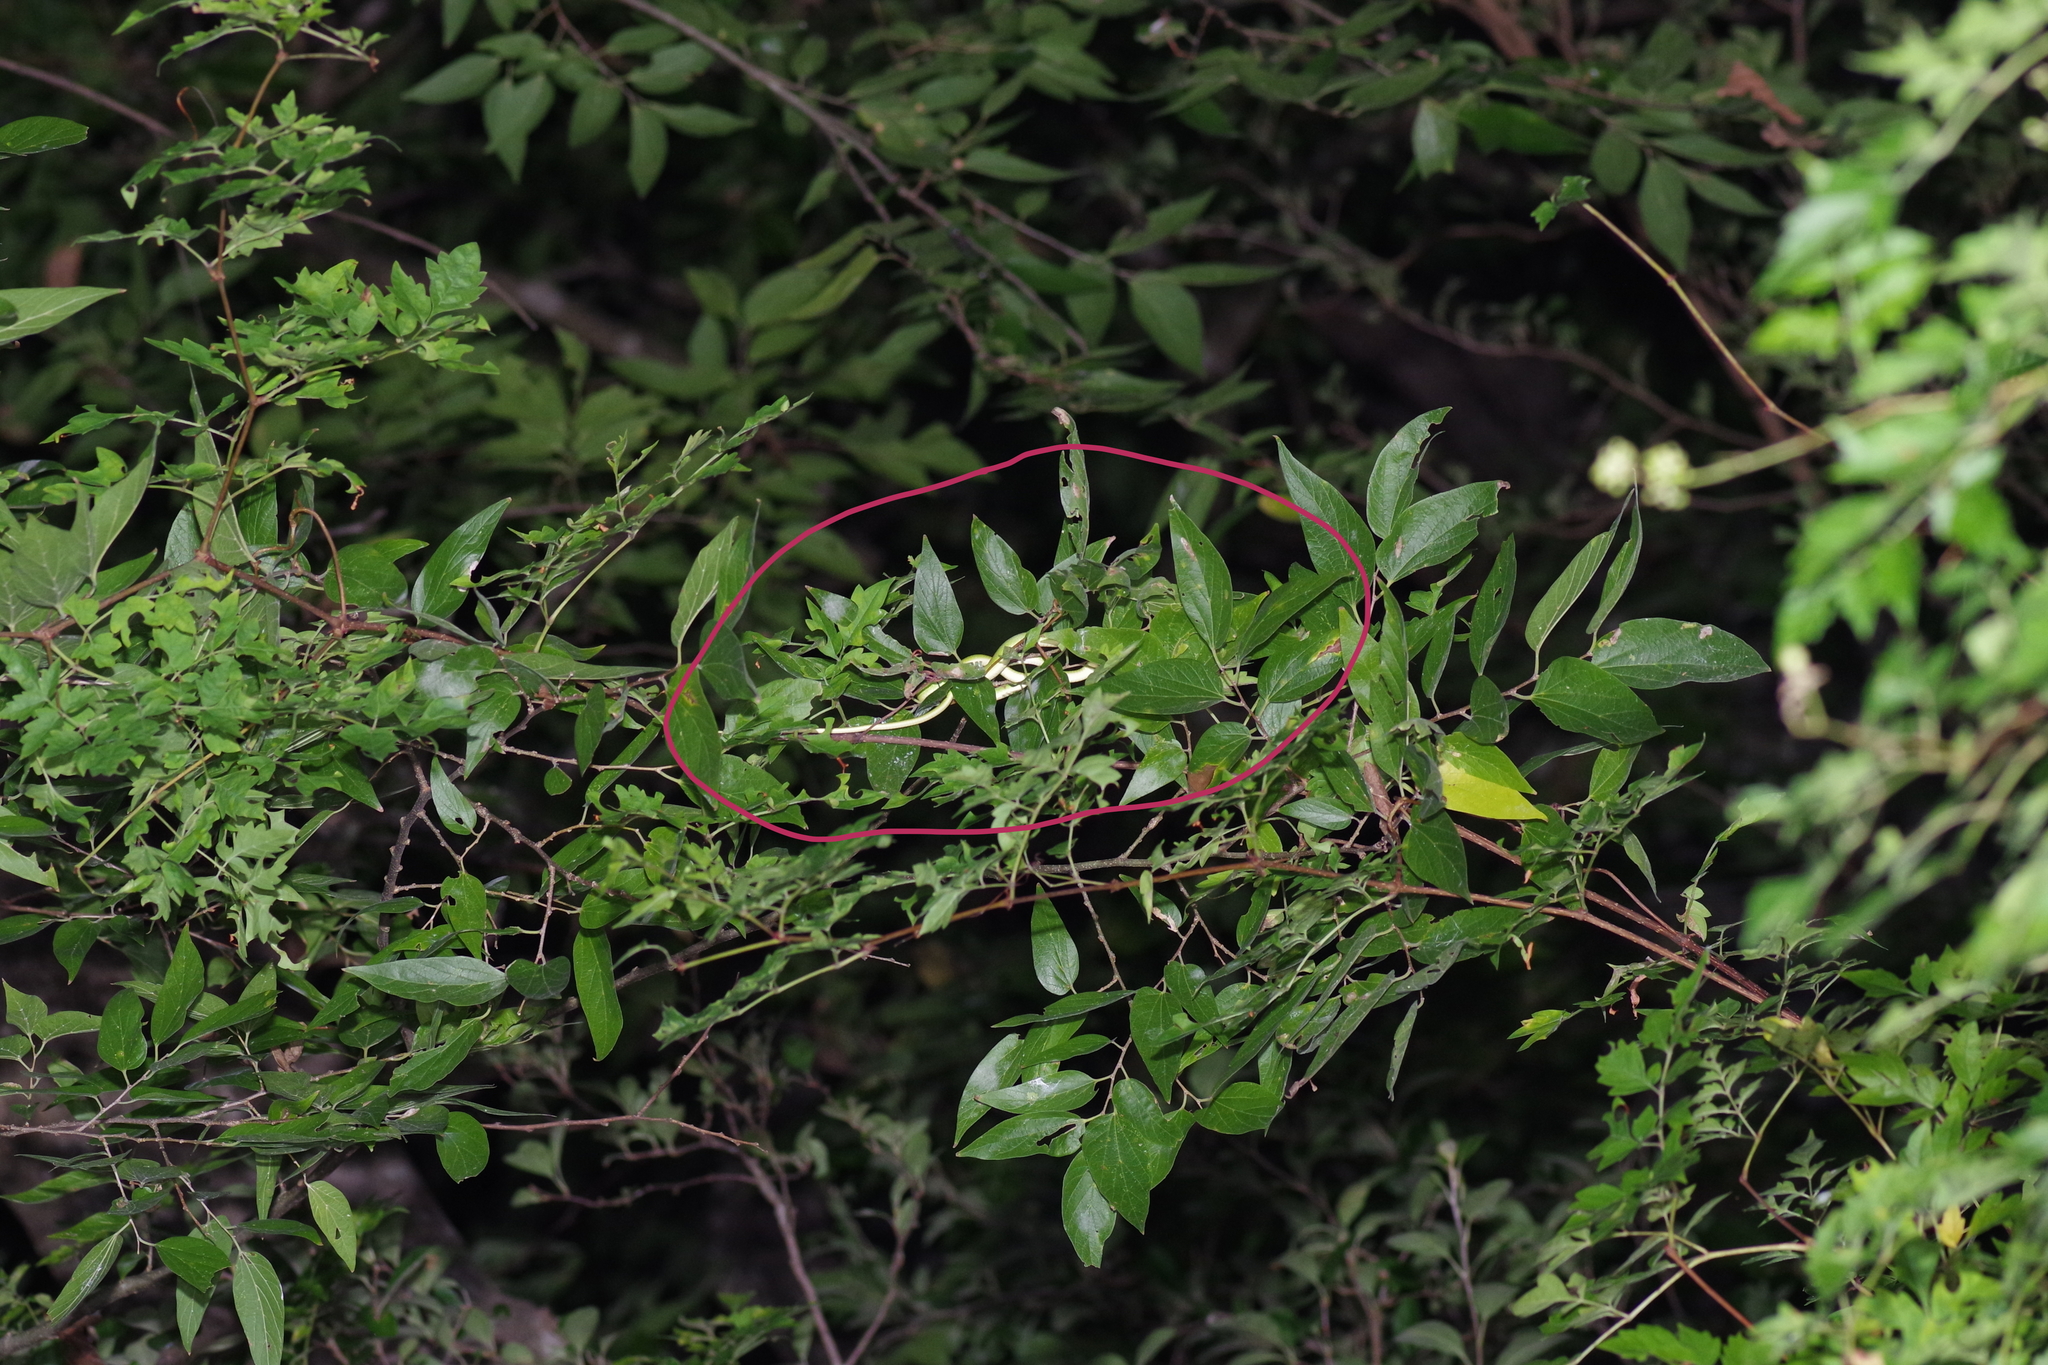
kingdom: Animalia
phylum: Chordata
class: Squamata
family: Colubridae
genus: Opheodrys
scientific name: Opheodrys aestivus
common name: Rough greensnake
